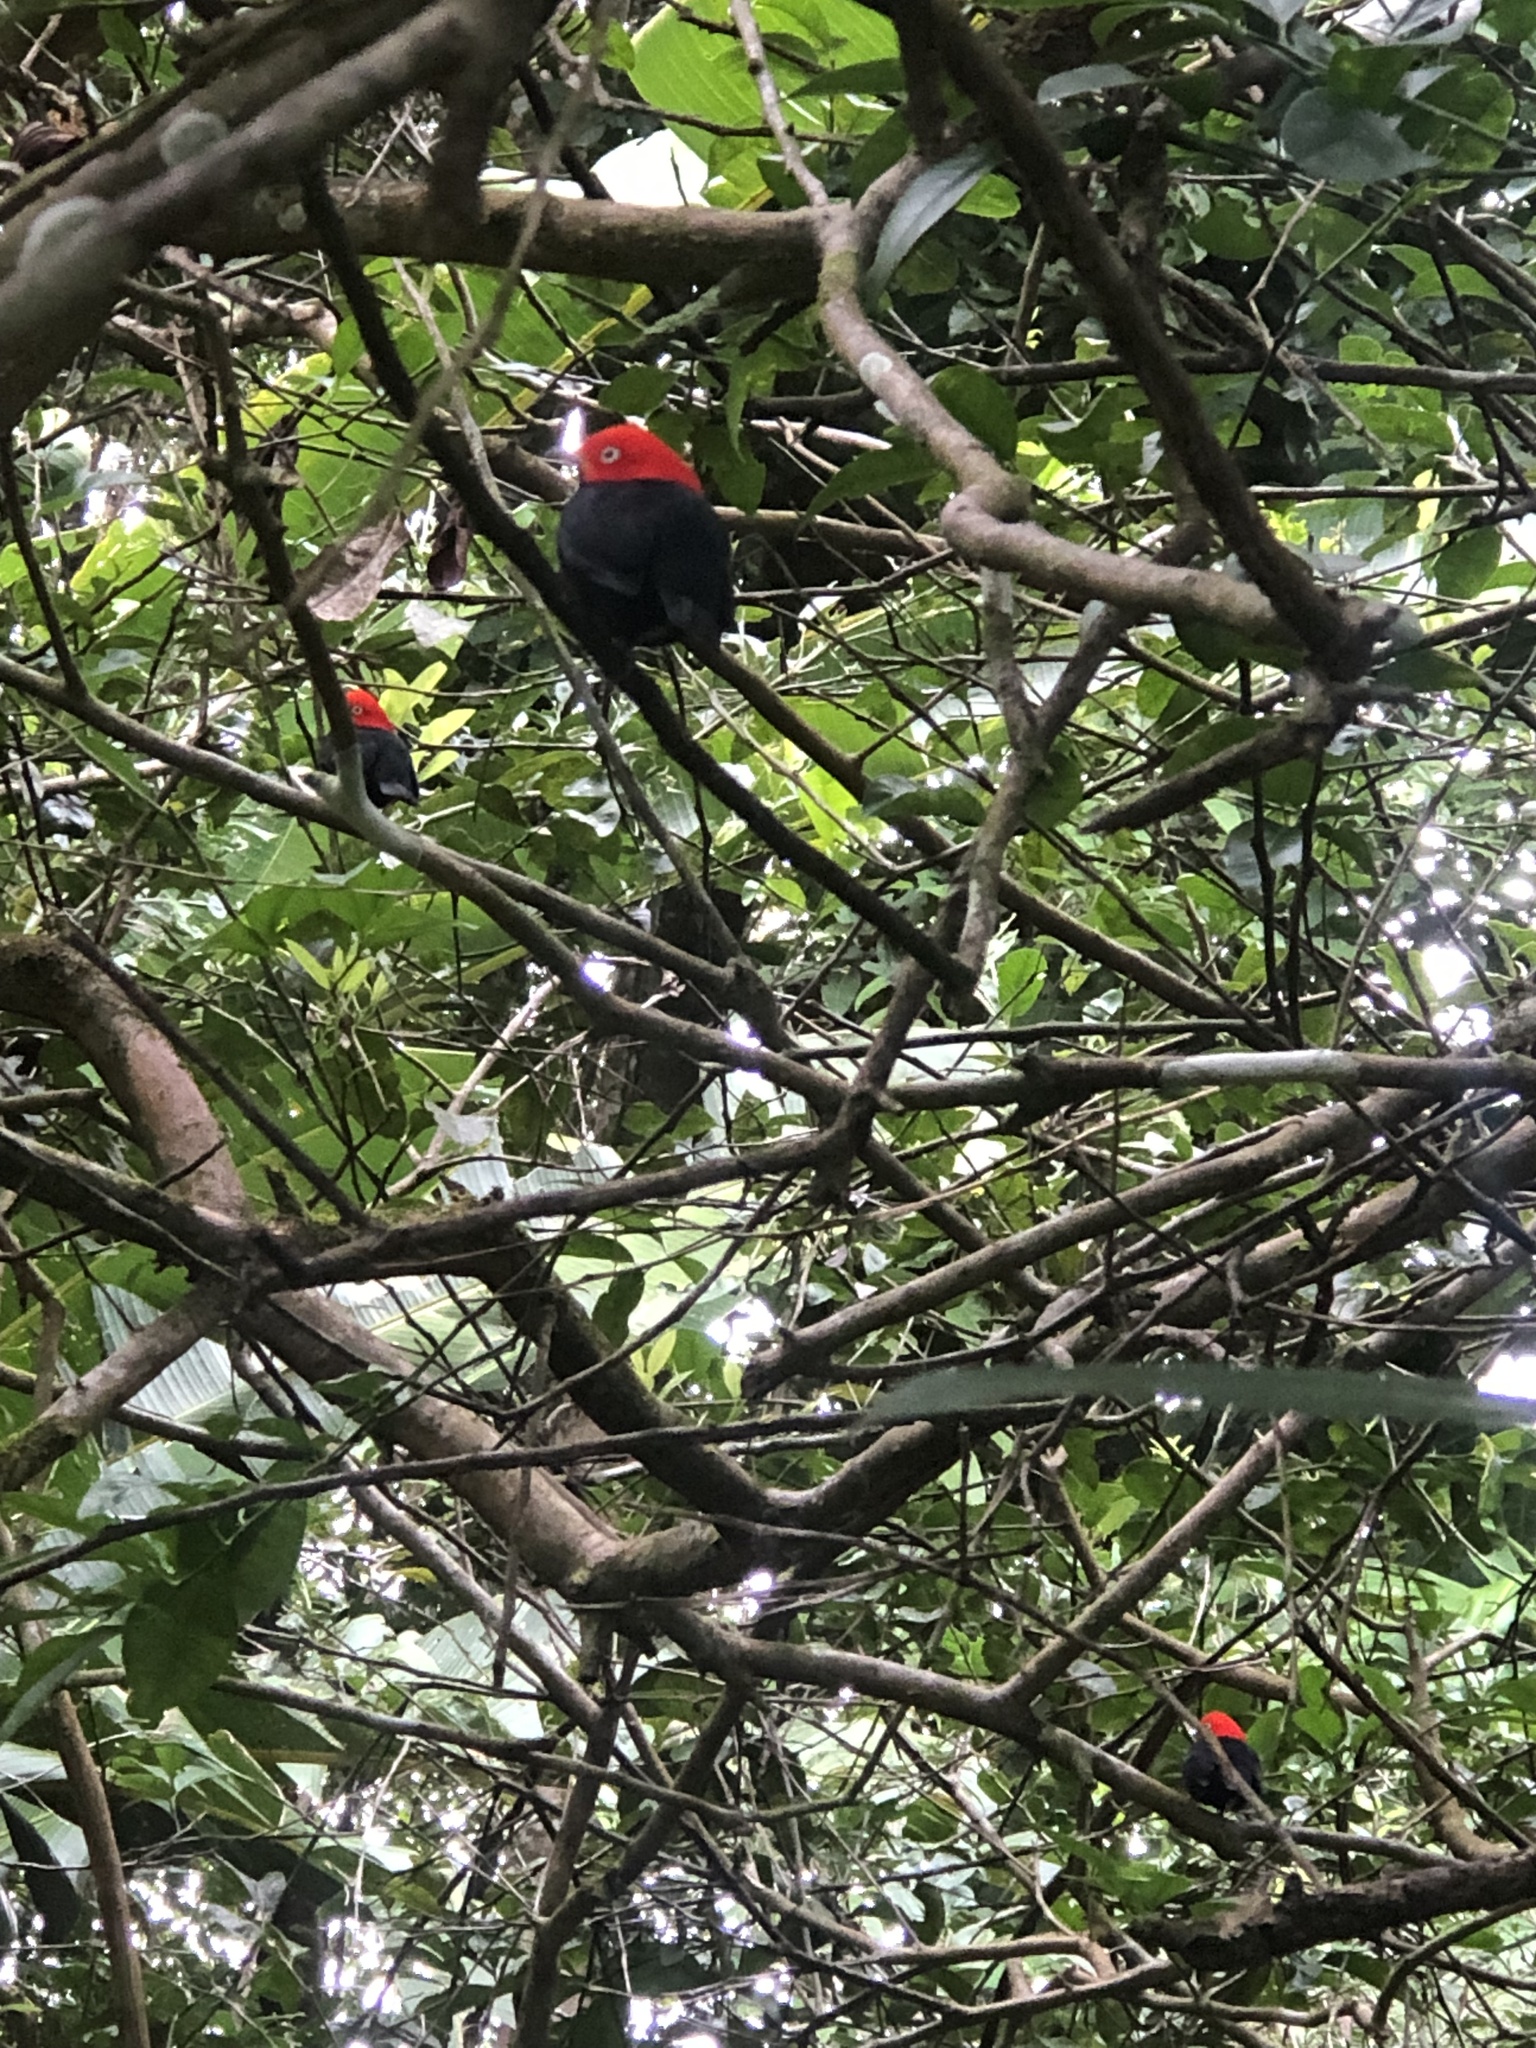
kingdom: Animalia
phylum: Chordata
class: Aves
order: Passeriformes
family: Pipridae
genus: Pipra
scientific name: Pipra mentalis
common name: Red-capped manakin
